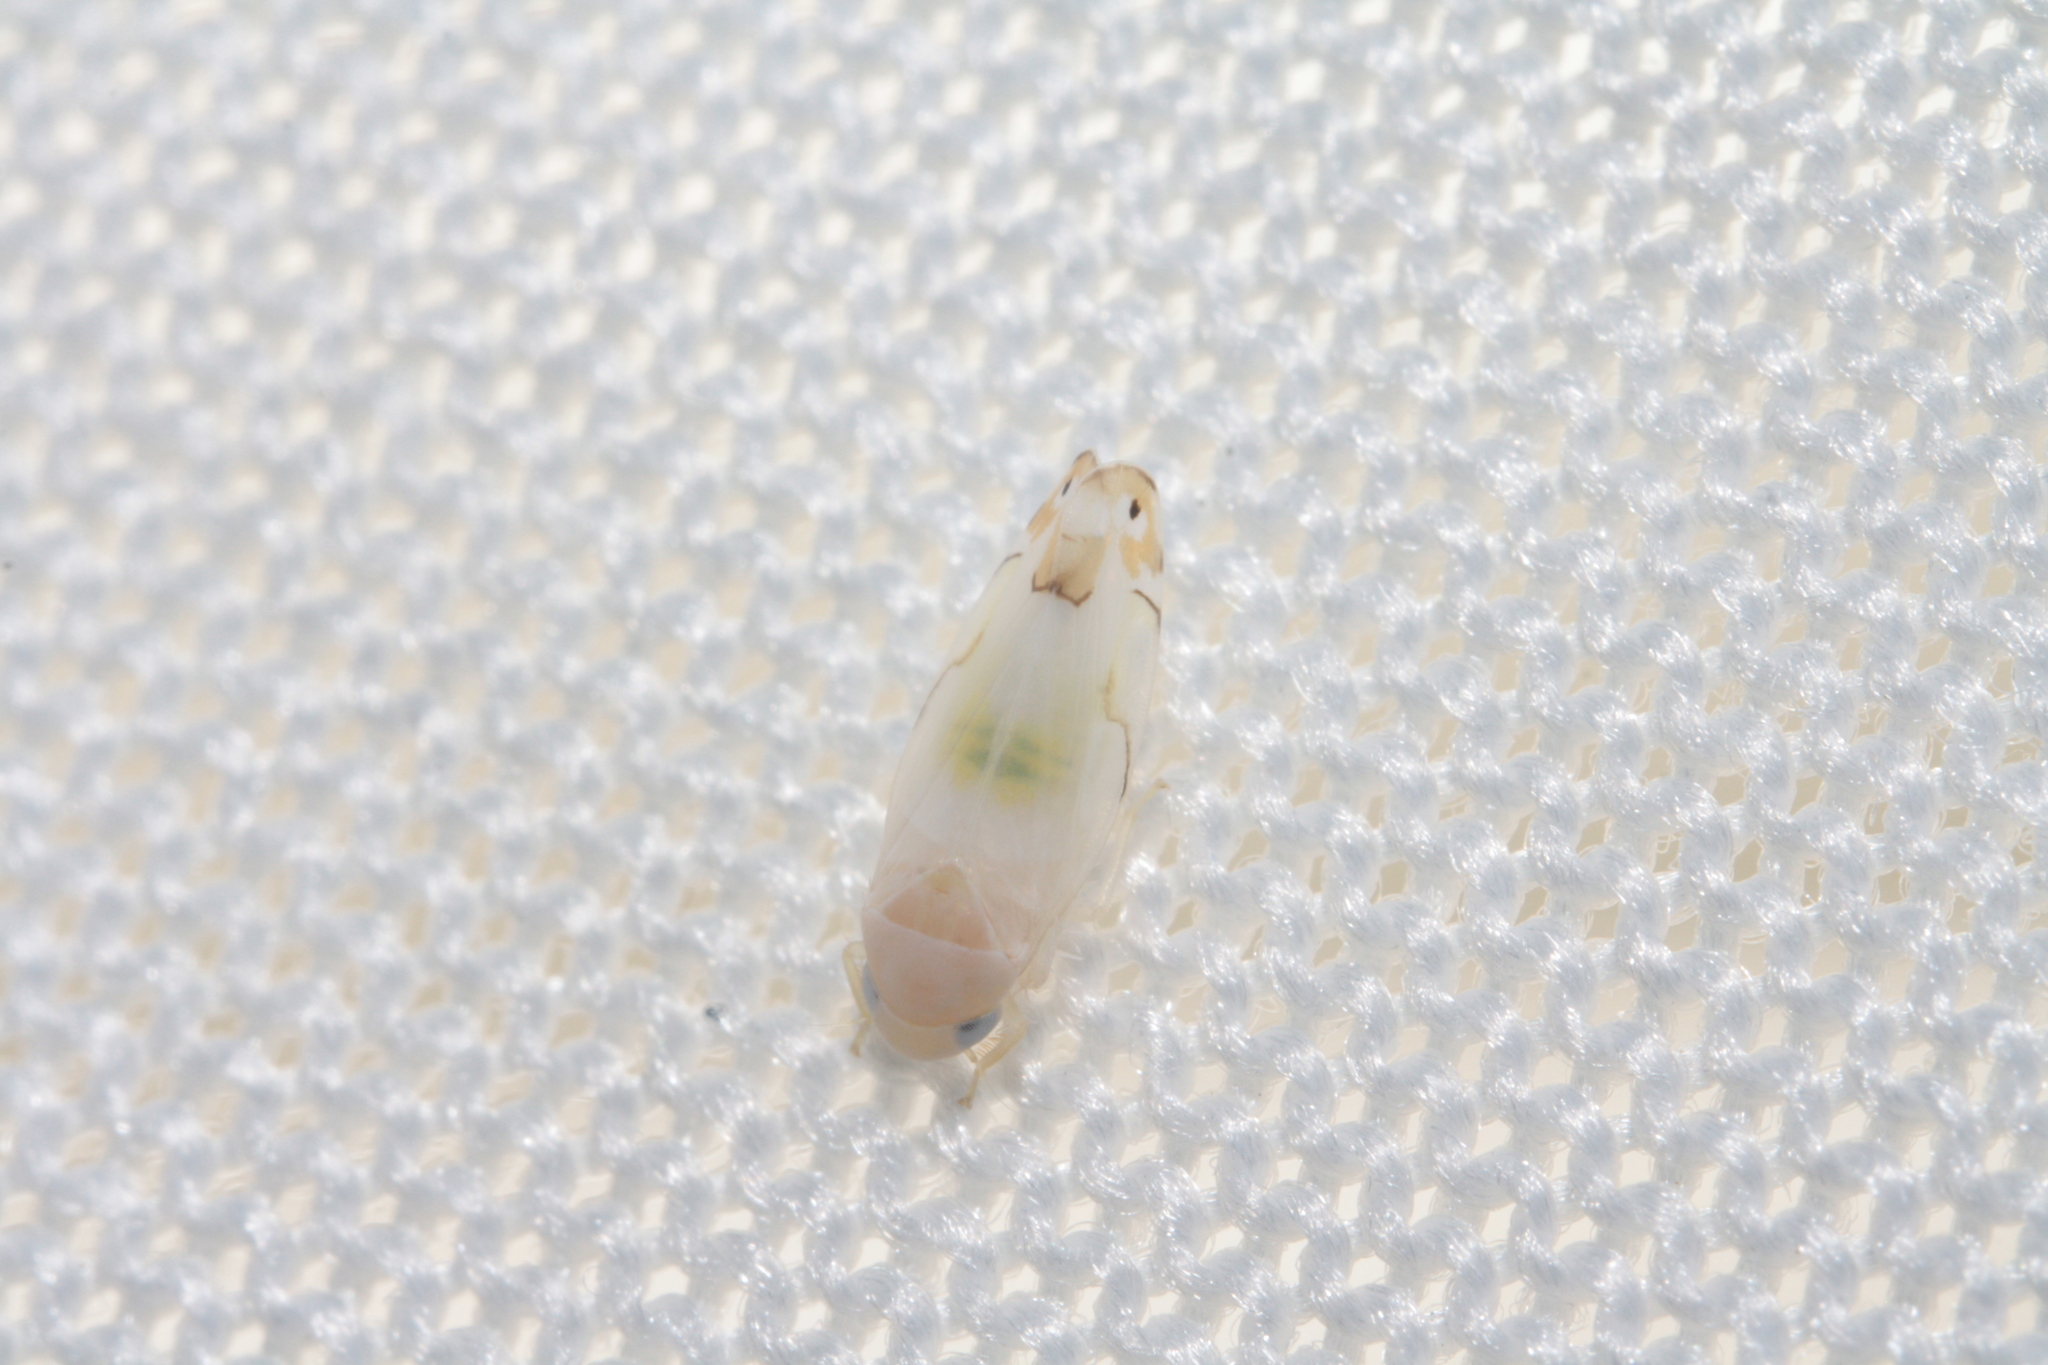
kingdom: Animalia
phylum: Arthropoda
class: Insecta
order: Hemiptera
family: Cicadellidae
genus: Eurhadina
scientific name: Eurhadina kirschbaumi
